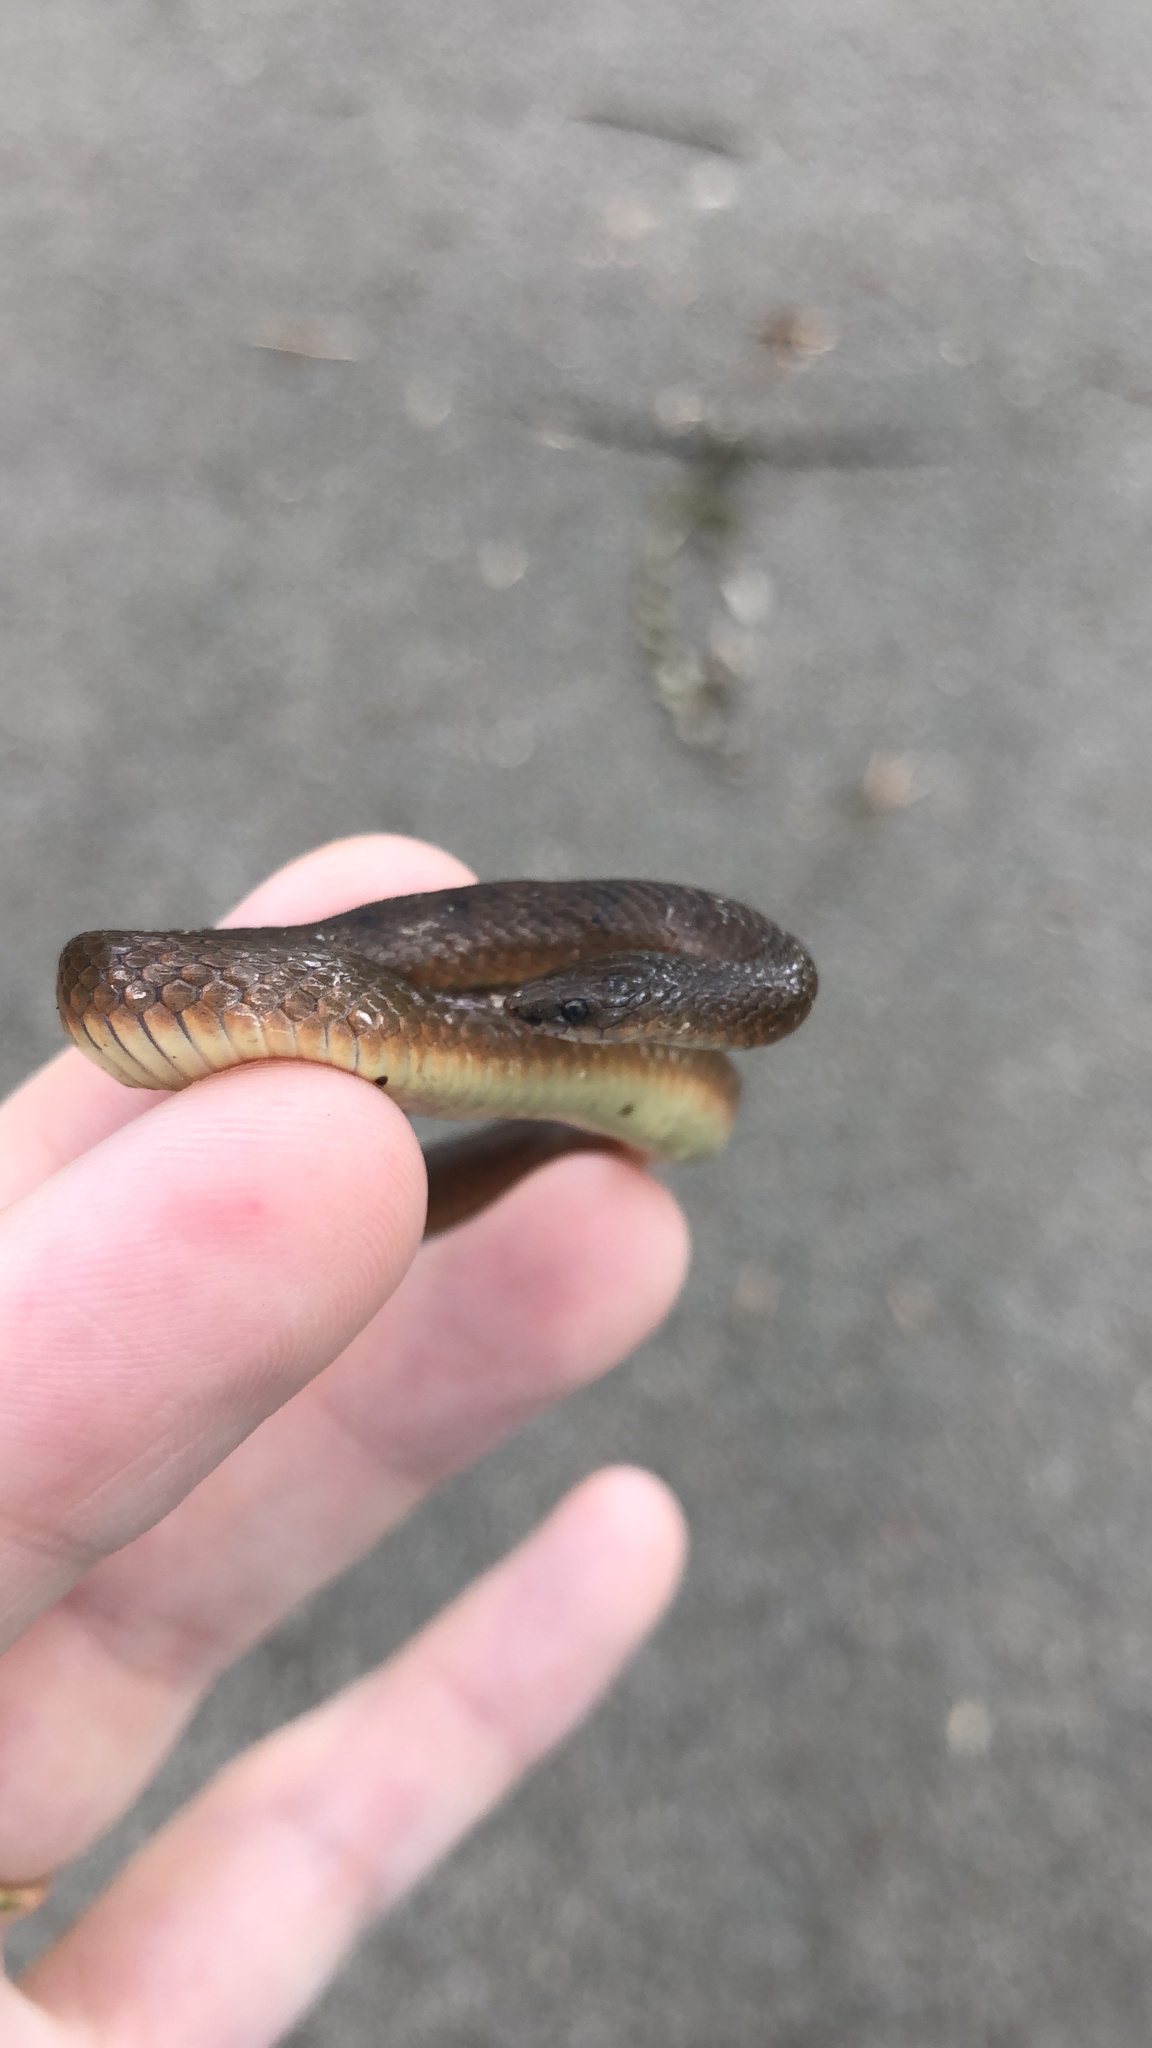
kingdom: Animalia
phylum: Chordata
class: Squamata
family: Colubridae
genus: Haldea
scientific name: Haldea striatula
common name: Rough earth snake
